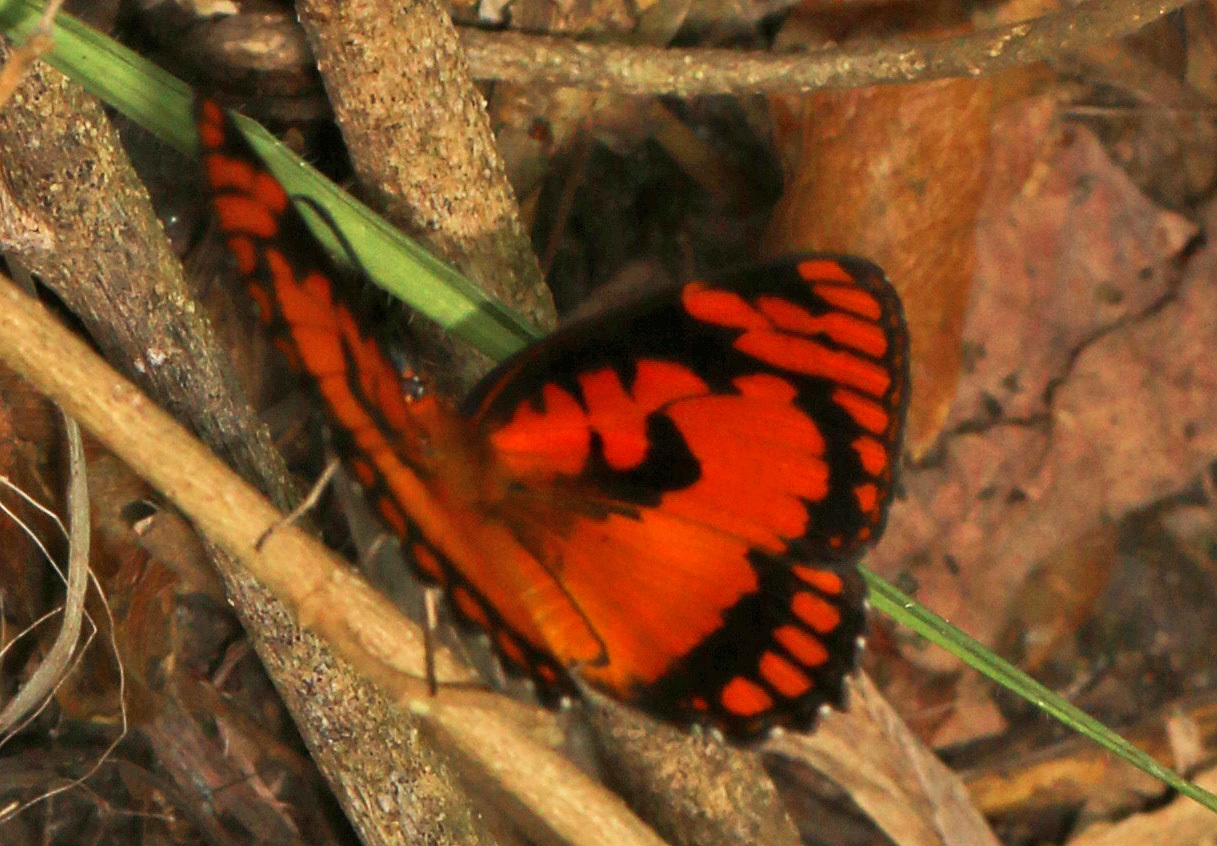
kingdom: Animalia
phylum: Arthropoda
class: Insecta
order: Lepidoptera
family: Nymphalidae
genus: Byblia
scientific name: Byblia acheloia
